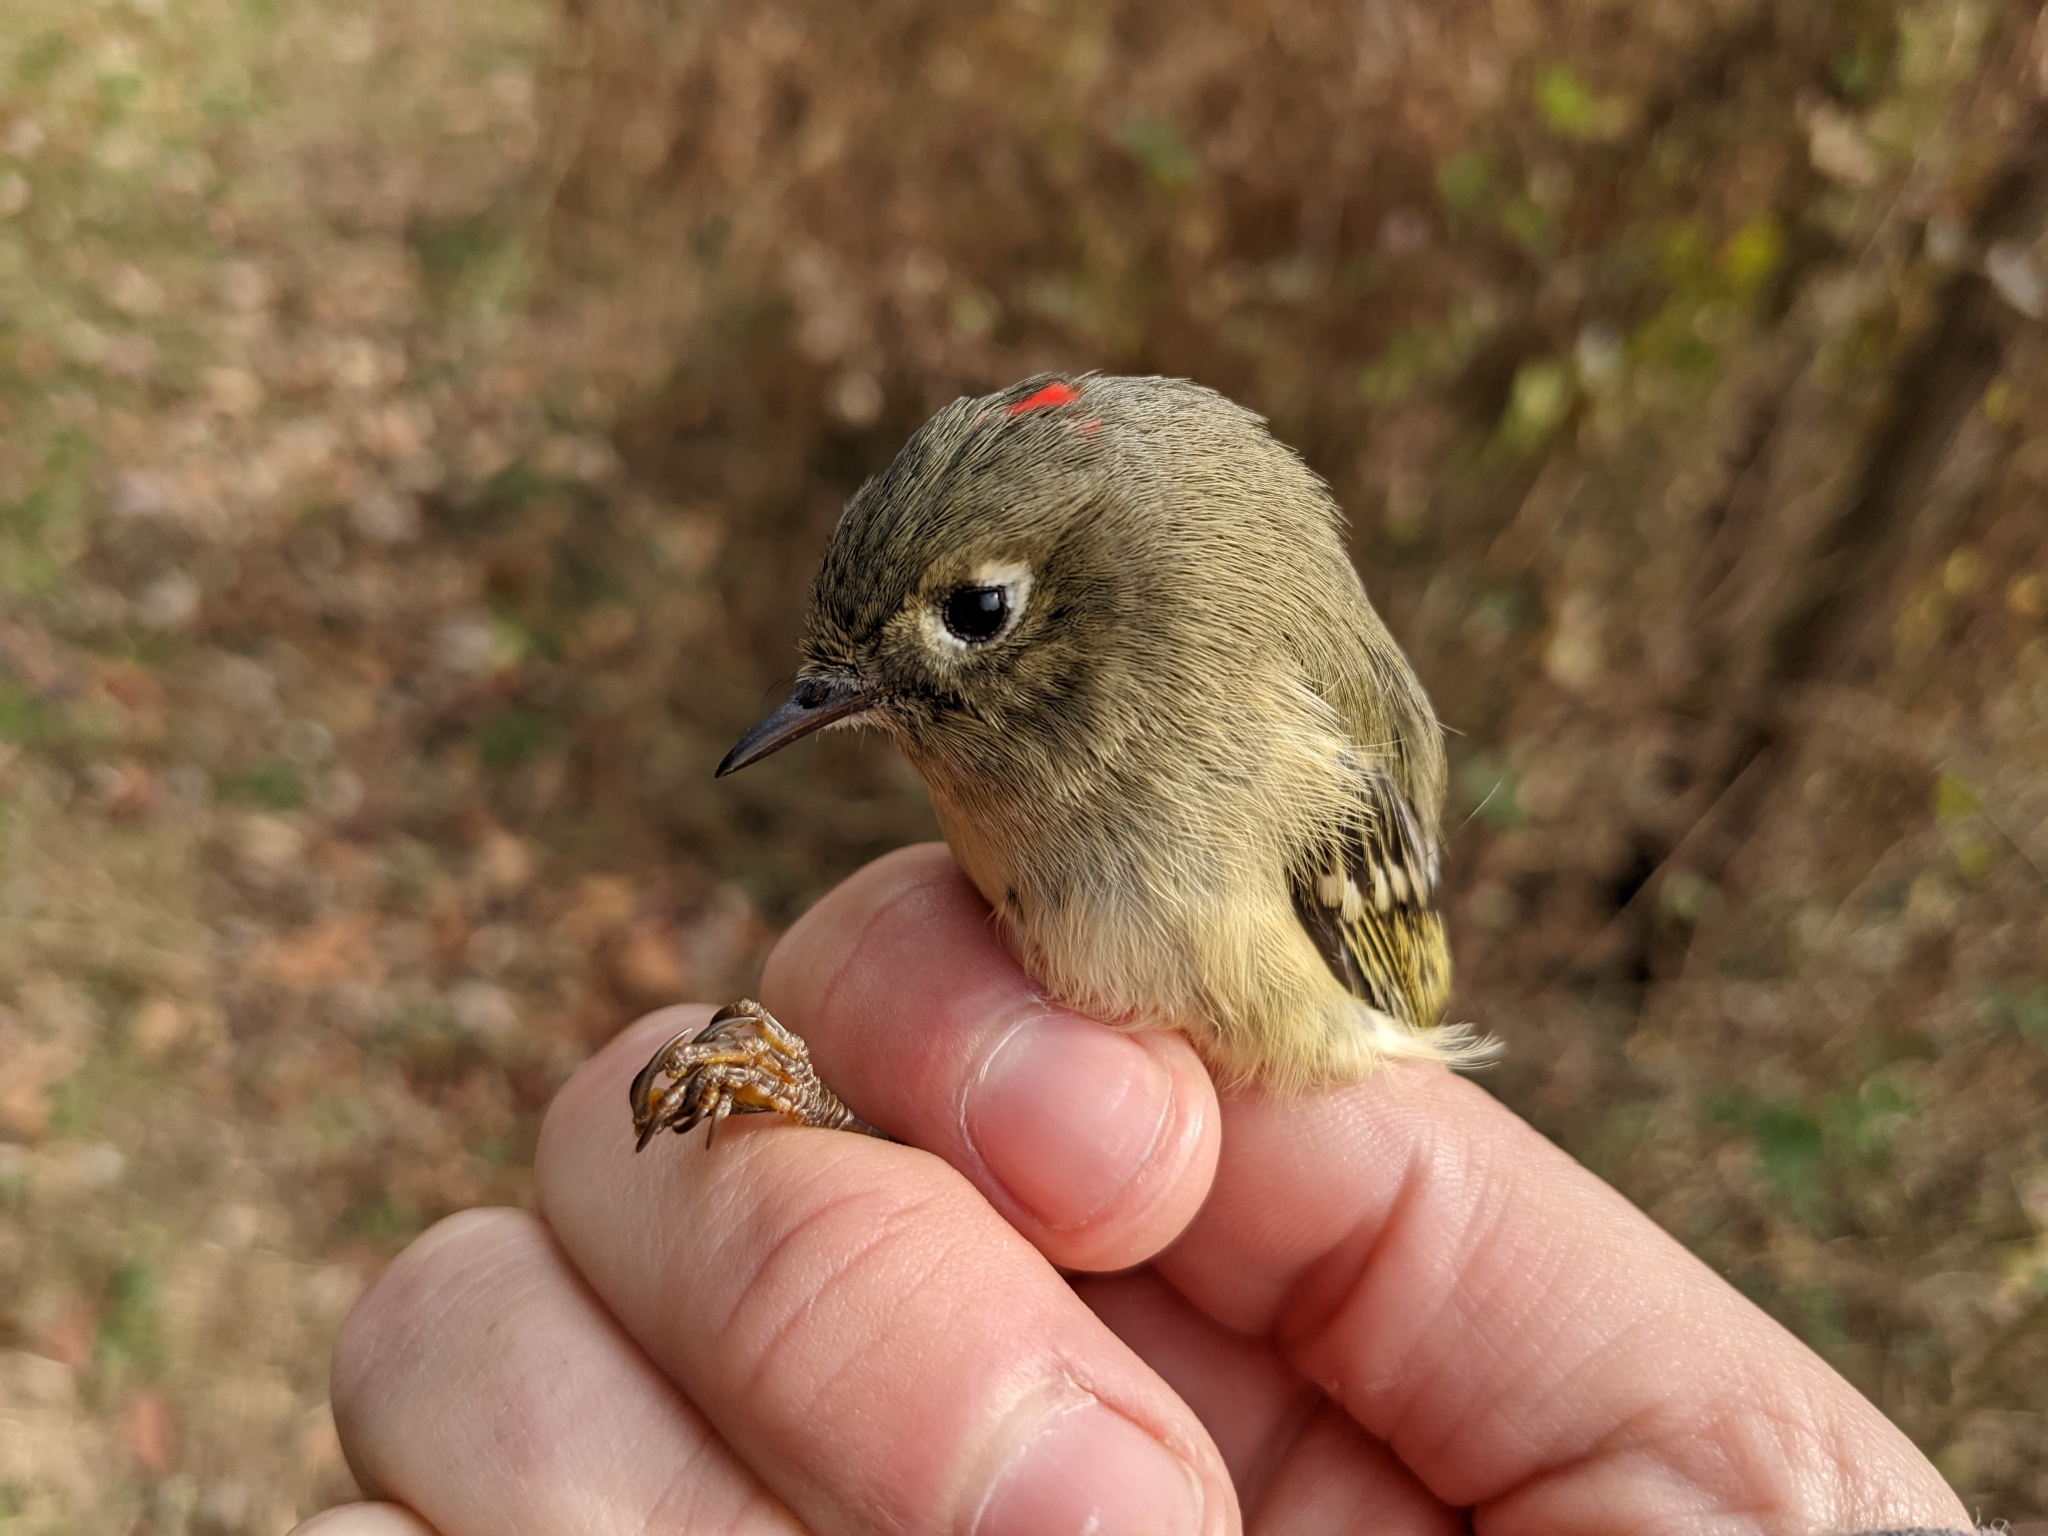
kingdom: Animalia
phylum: Chordata
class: Aves
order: Passeriformes
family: Regulidae
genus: Regulus
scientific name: Regulus calendula
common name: Ruby-crowned kinglet
